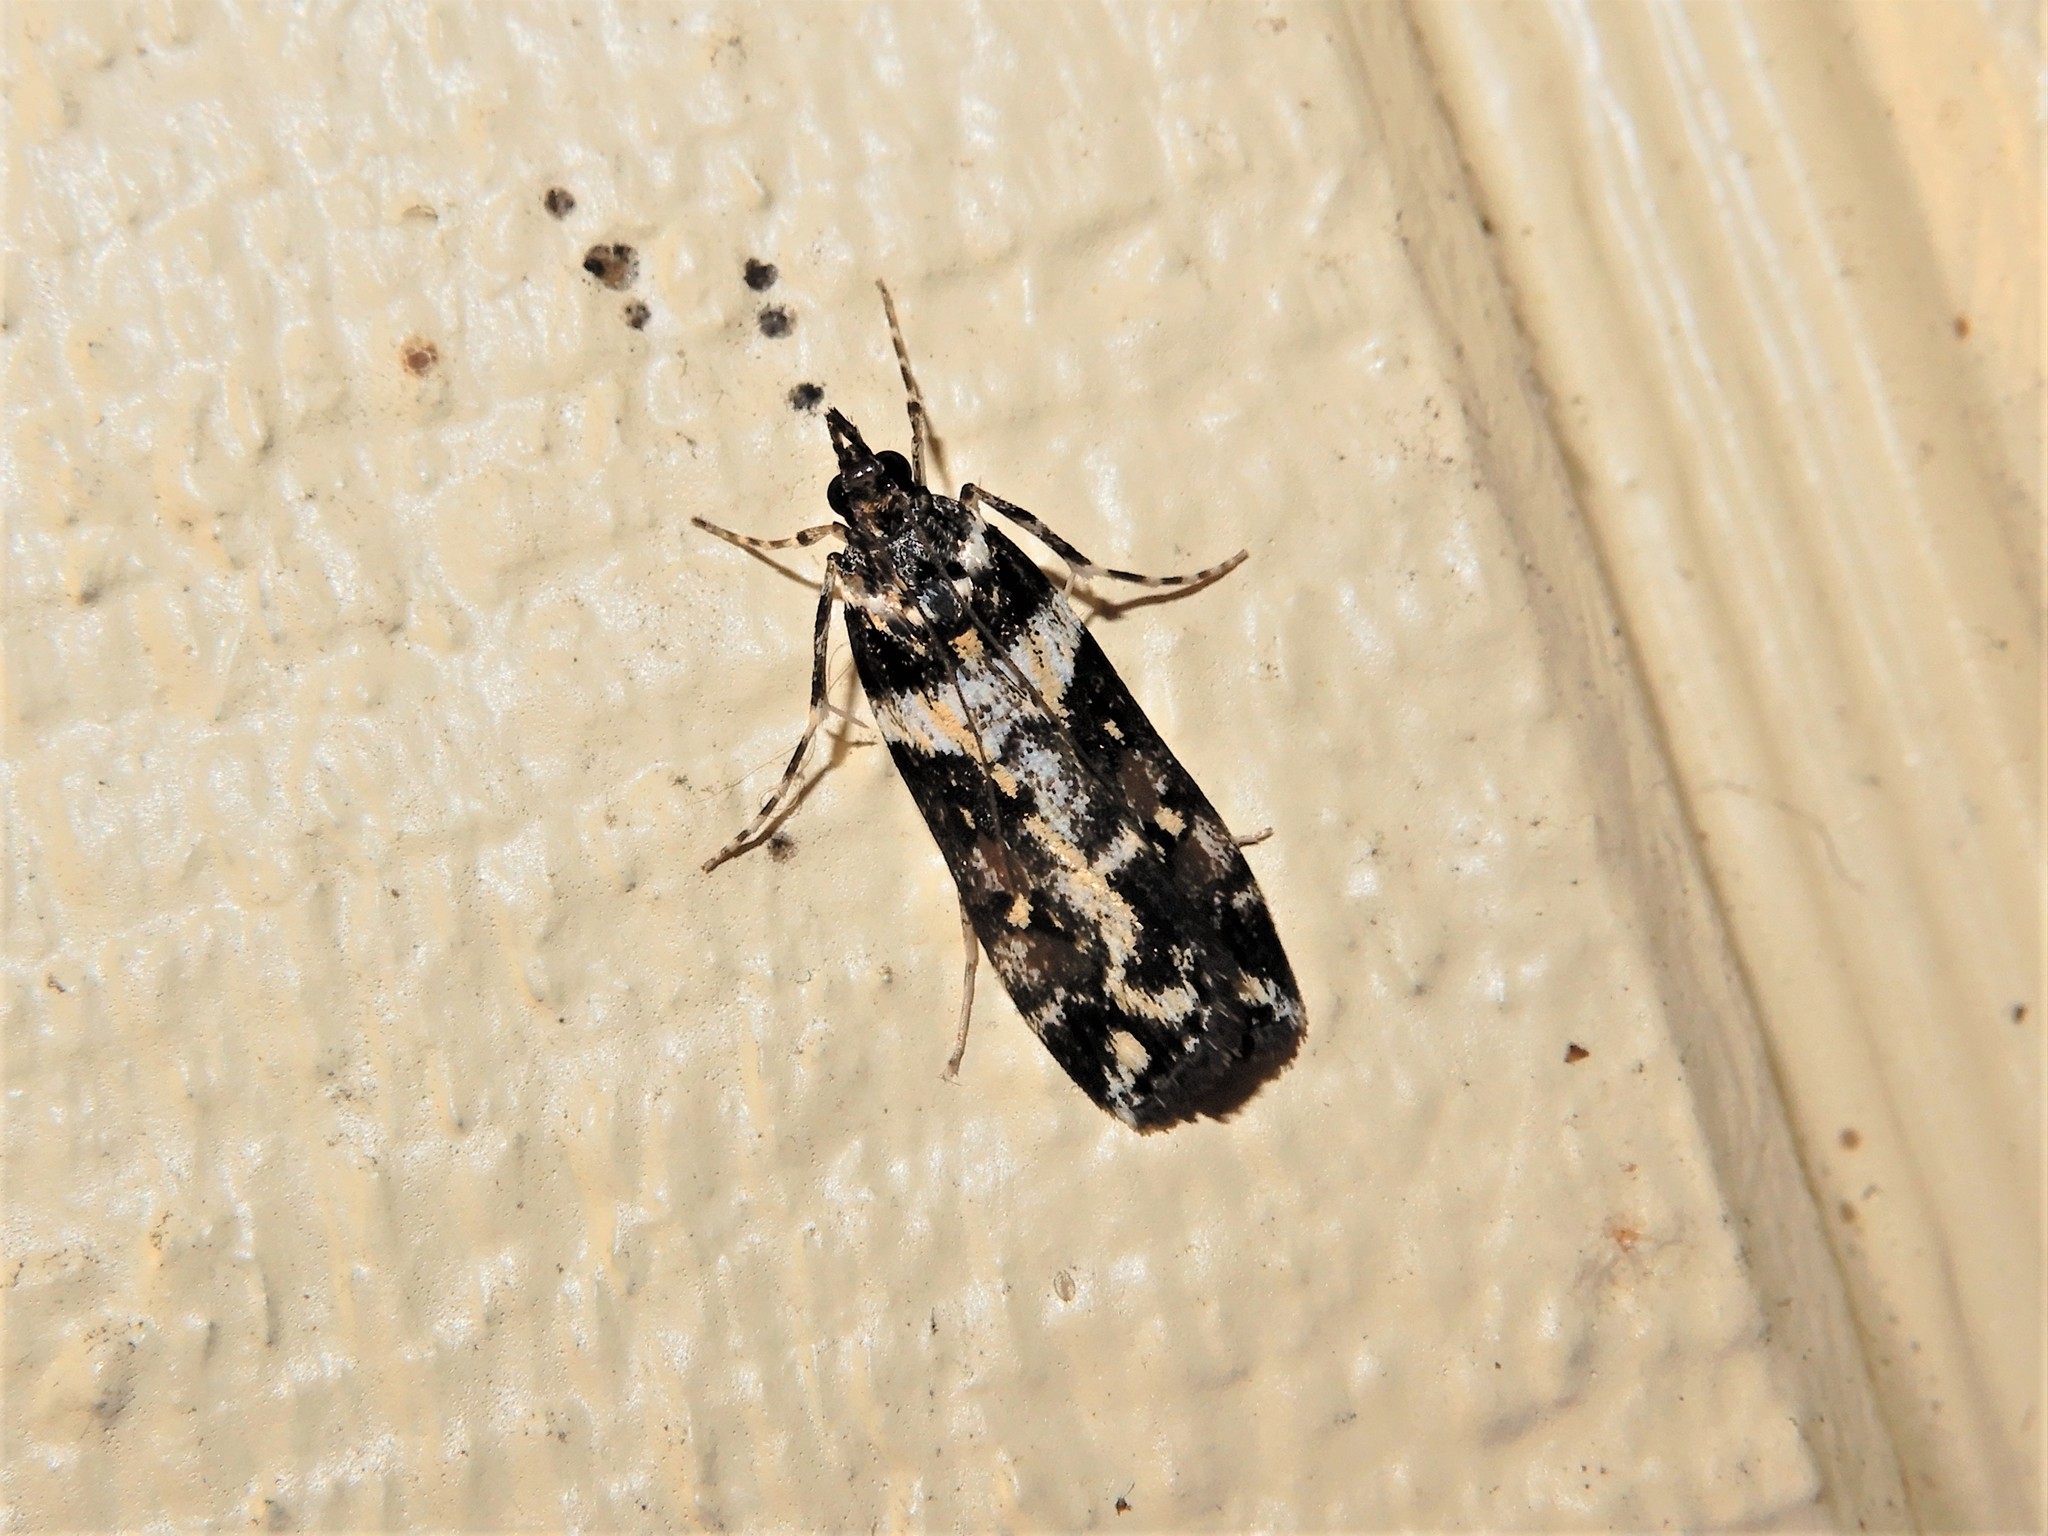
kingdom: Animalia
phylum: Arthropoda
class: Insecta
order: Lepidoptera
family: Crambidae
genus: Eudonia
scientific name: Eudonia diphtheralis
